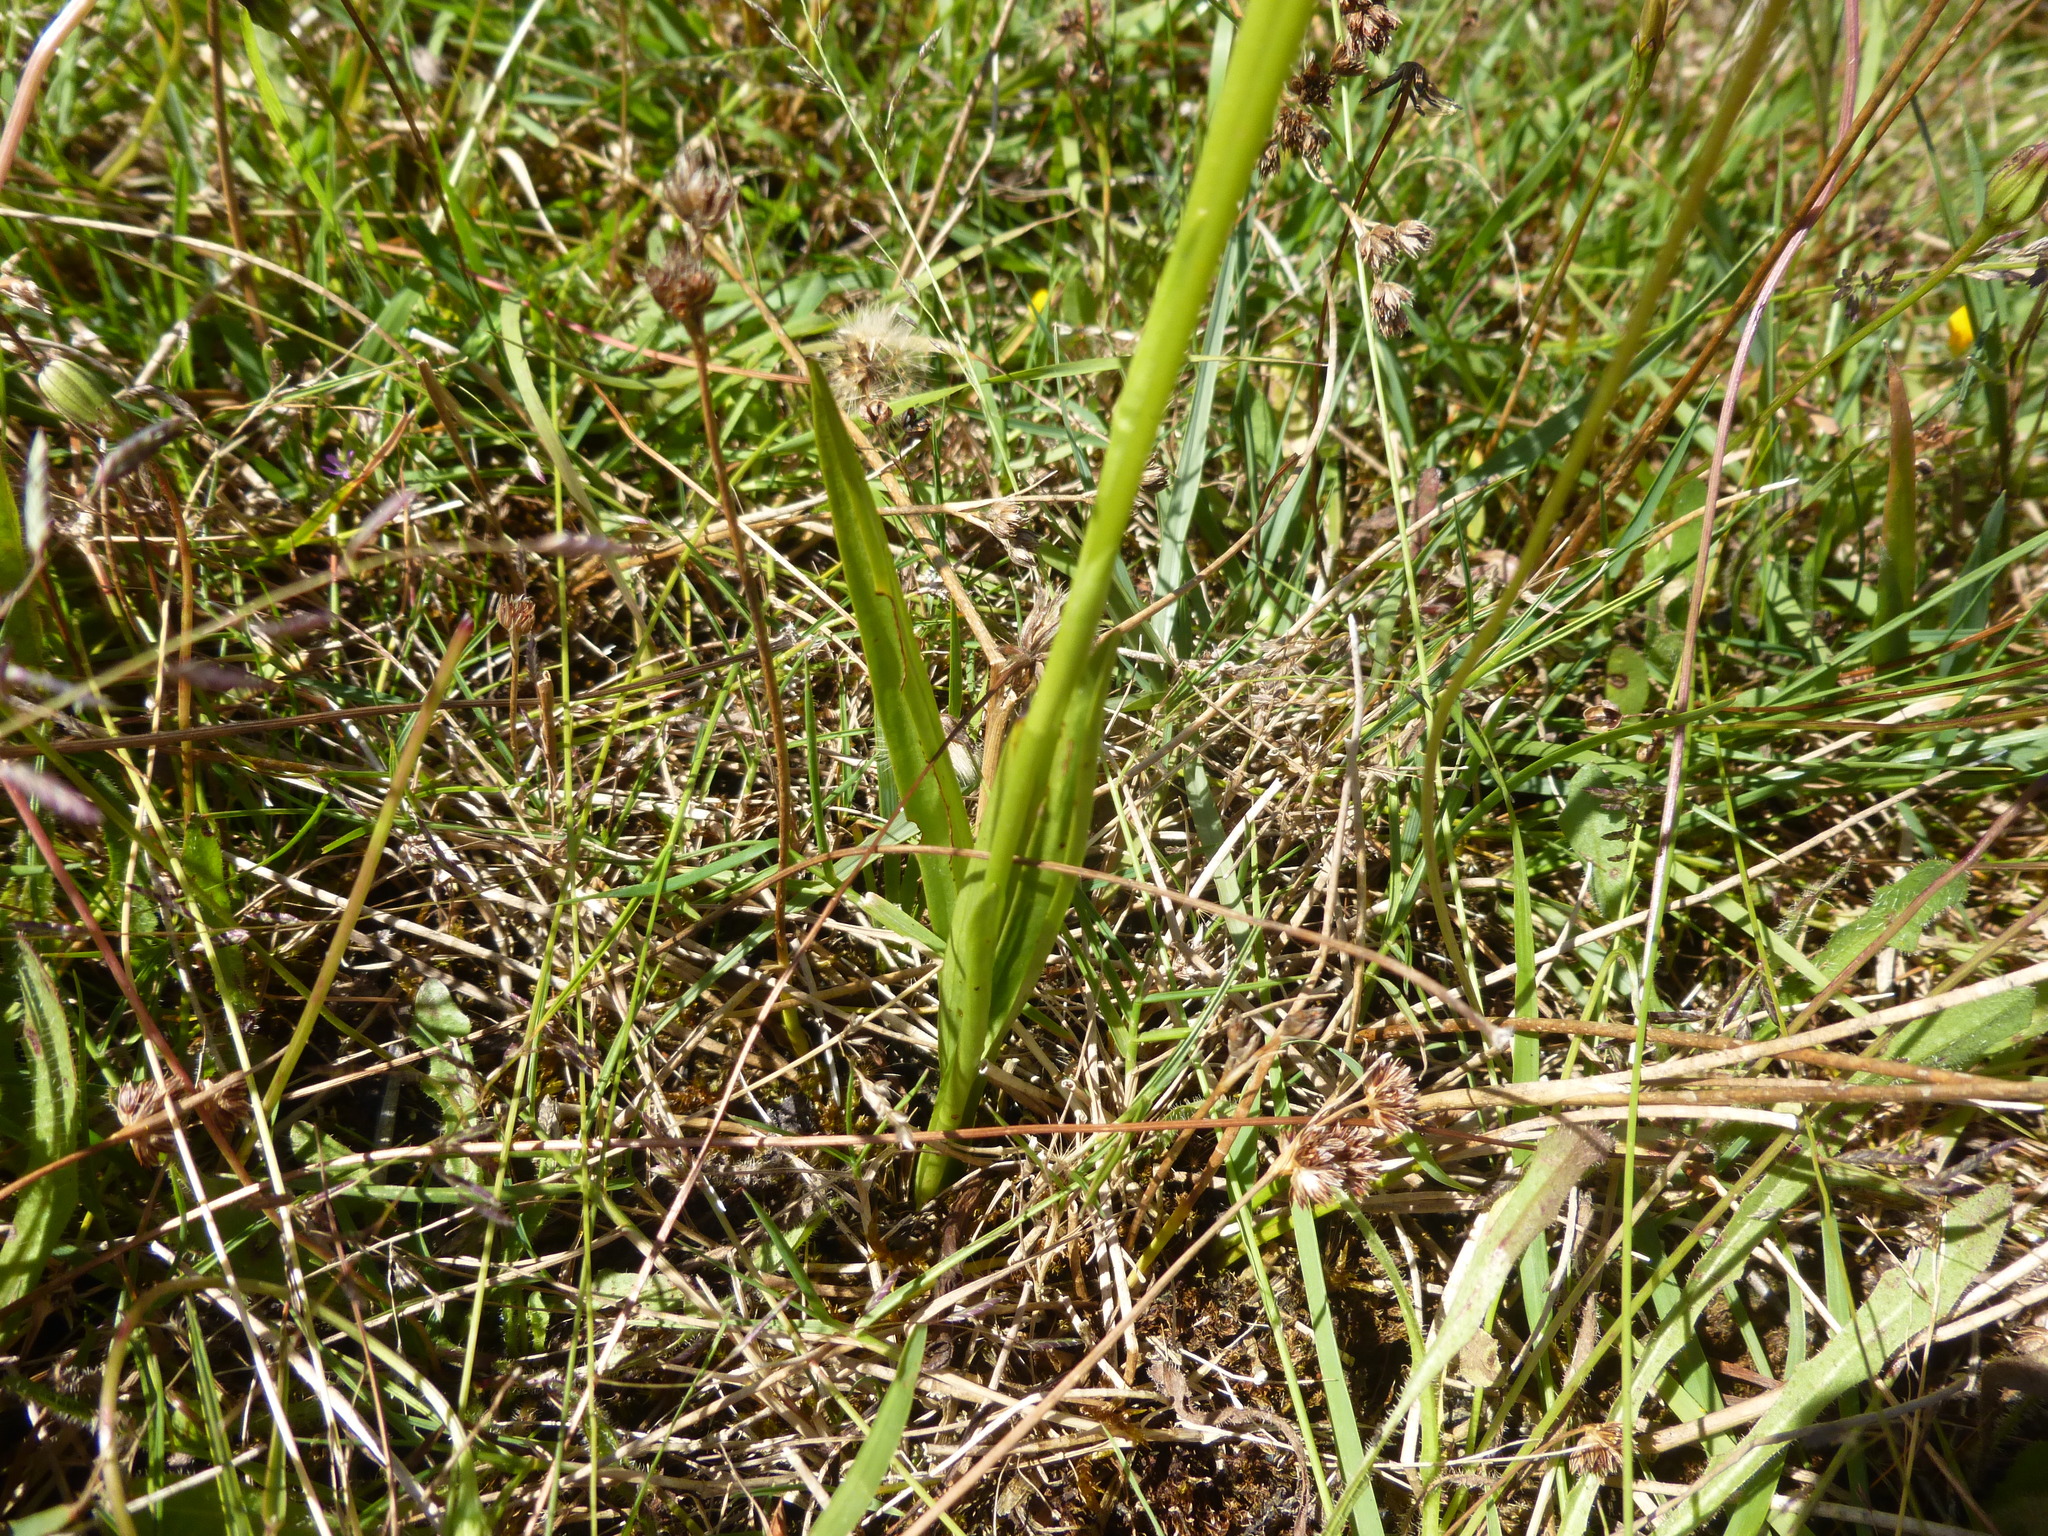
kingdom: Plantae
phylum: Tracheophyta
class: Liliopsida
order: Asparagales
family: Orchidaceae
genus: Spiranthes
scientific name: Spiranthes australis
